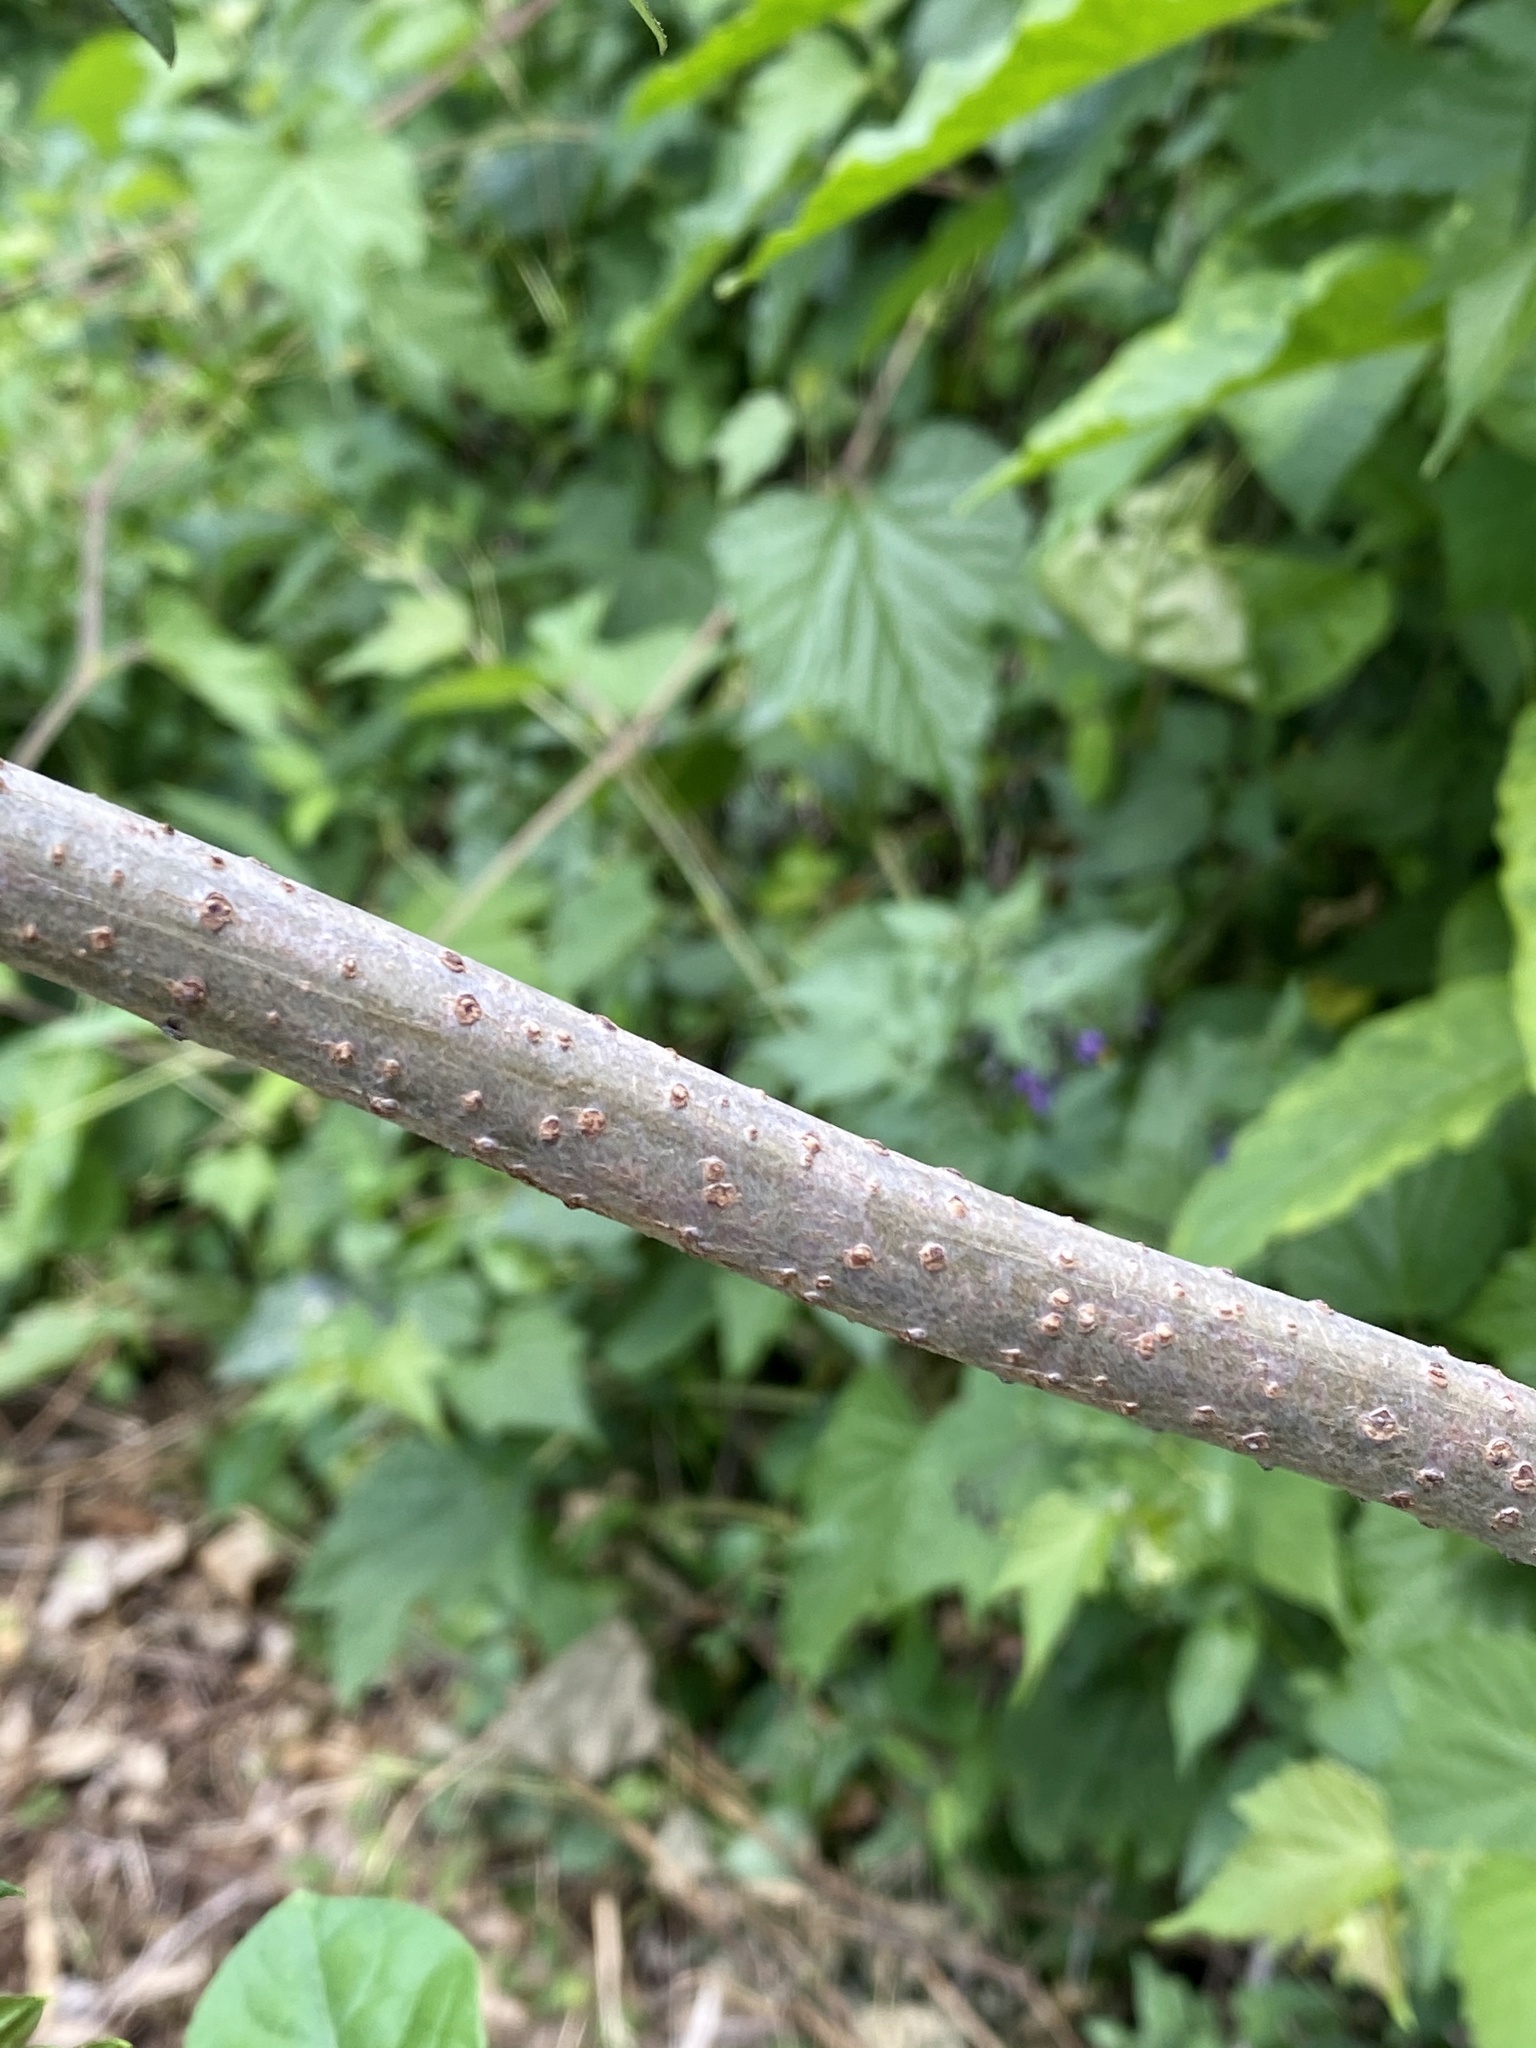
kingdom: Plantae
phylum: Tracheophyta
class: Magnoliopsida
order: Dipsacales
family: Viburnaceae
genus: Sambucus
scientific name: Sambucus canadensis
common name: American elder
